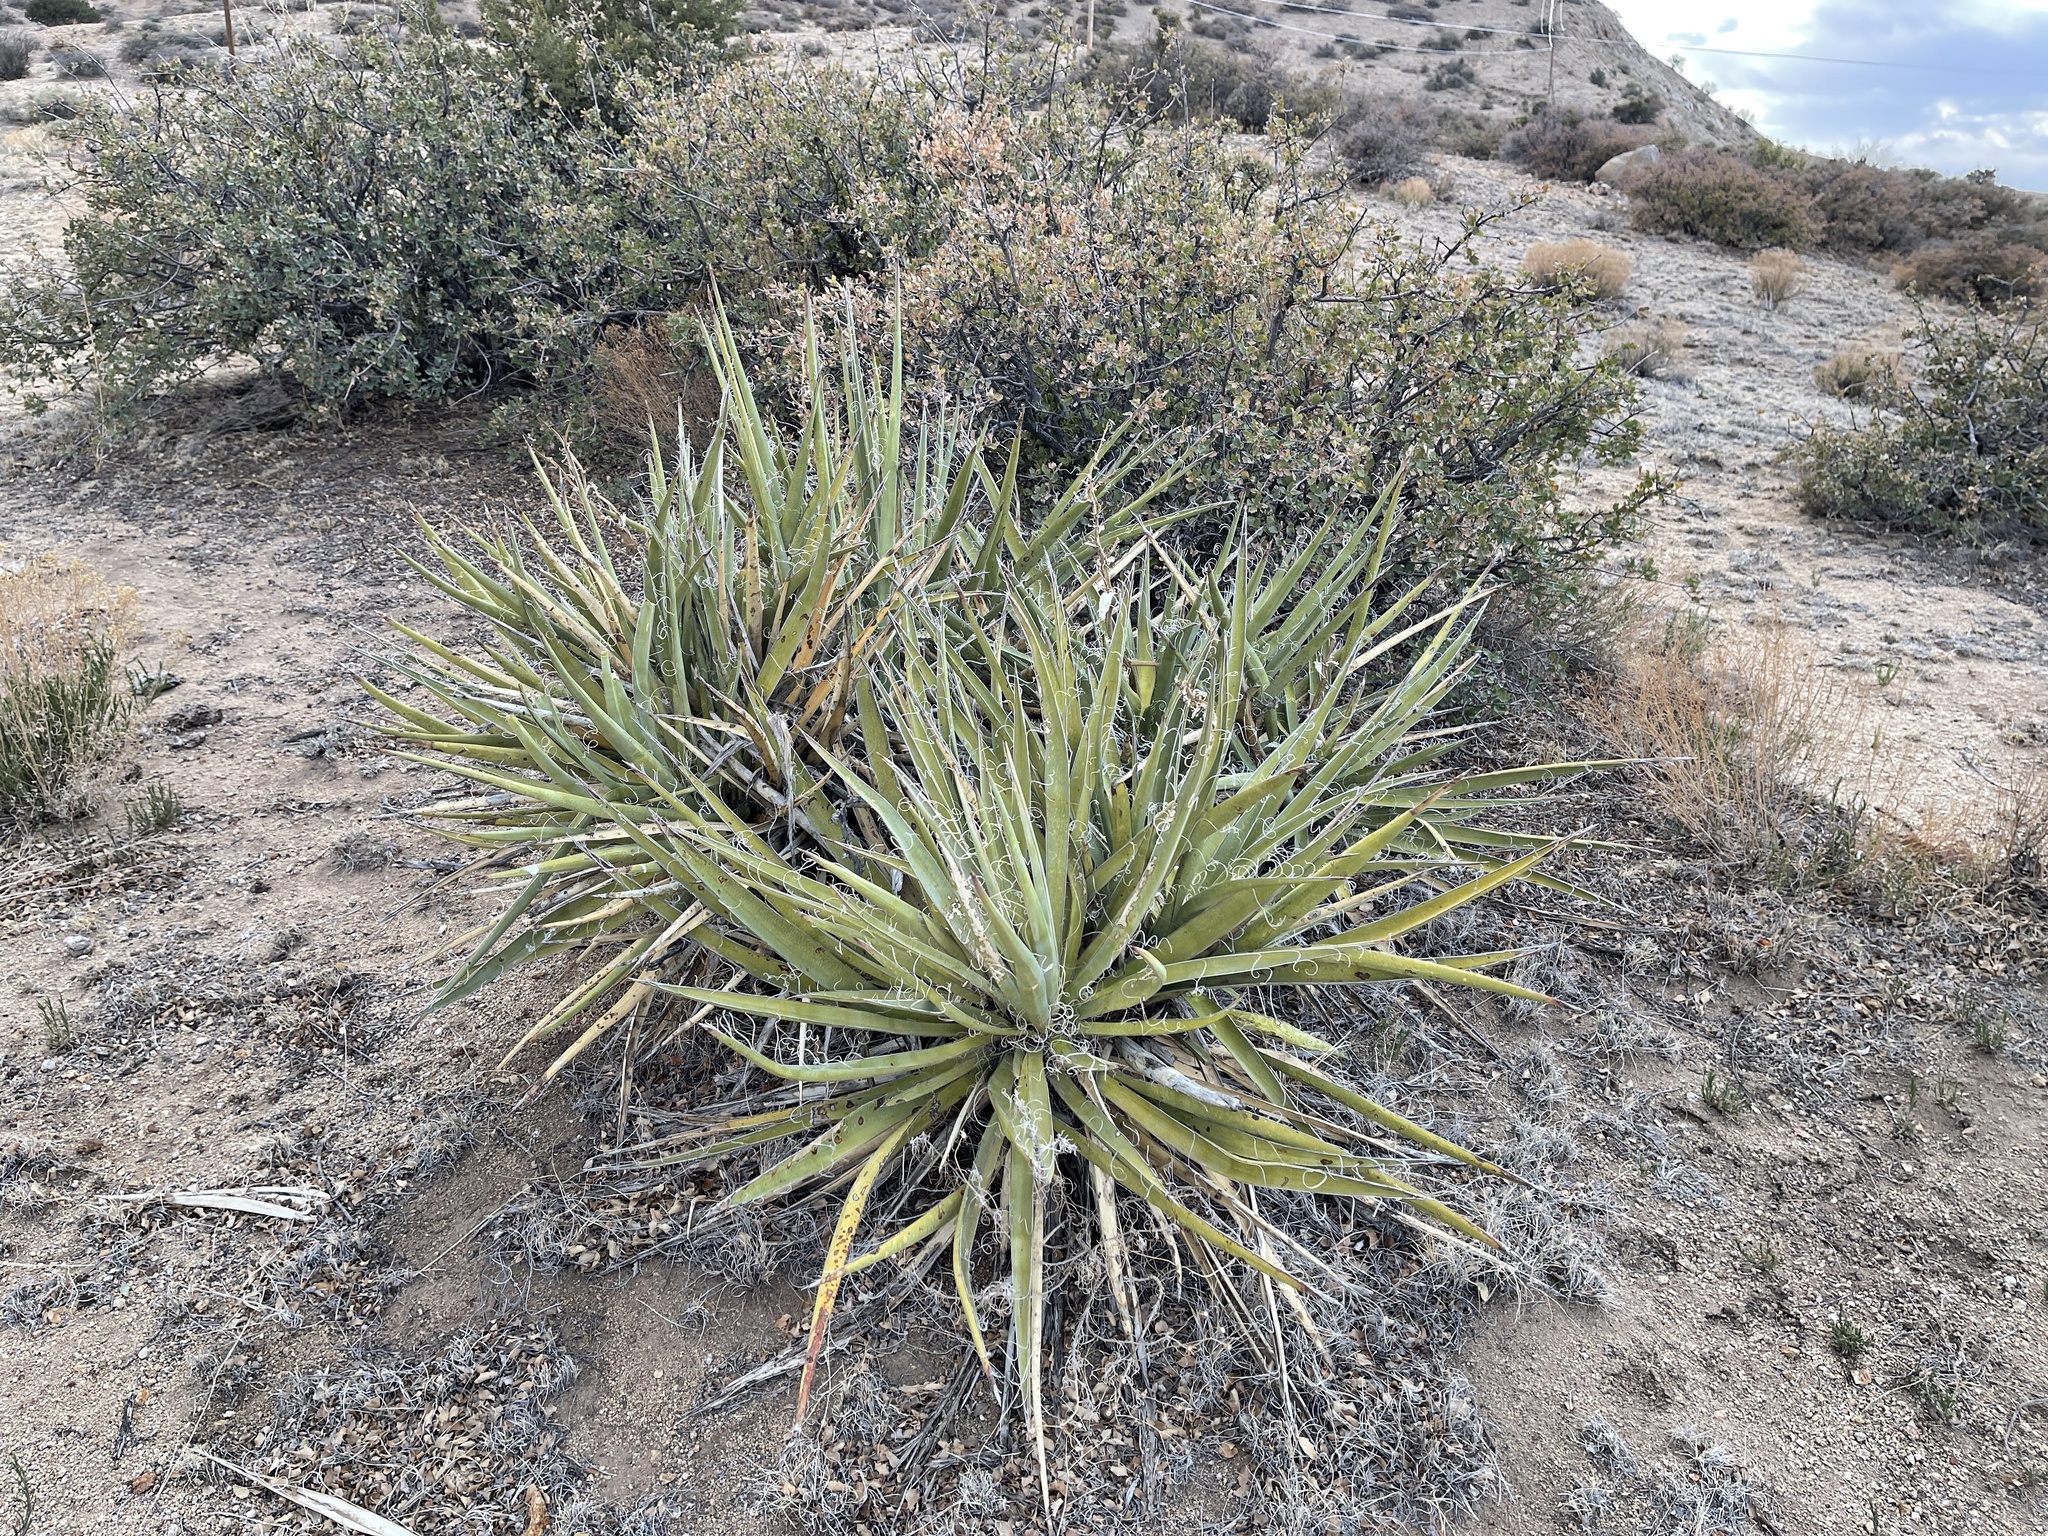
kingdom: Plantae
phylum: Tracheophyta
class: Liliopsida
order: Asparagales
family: Asparagaceae
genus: Yucca
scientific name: Yucca baccata
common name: Banana yucca
